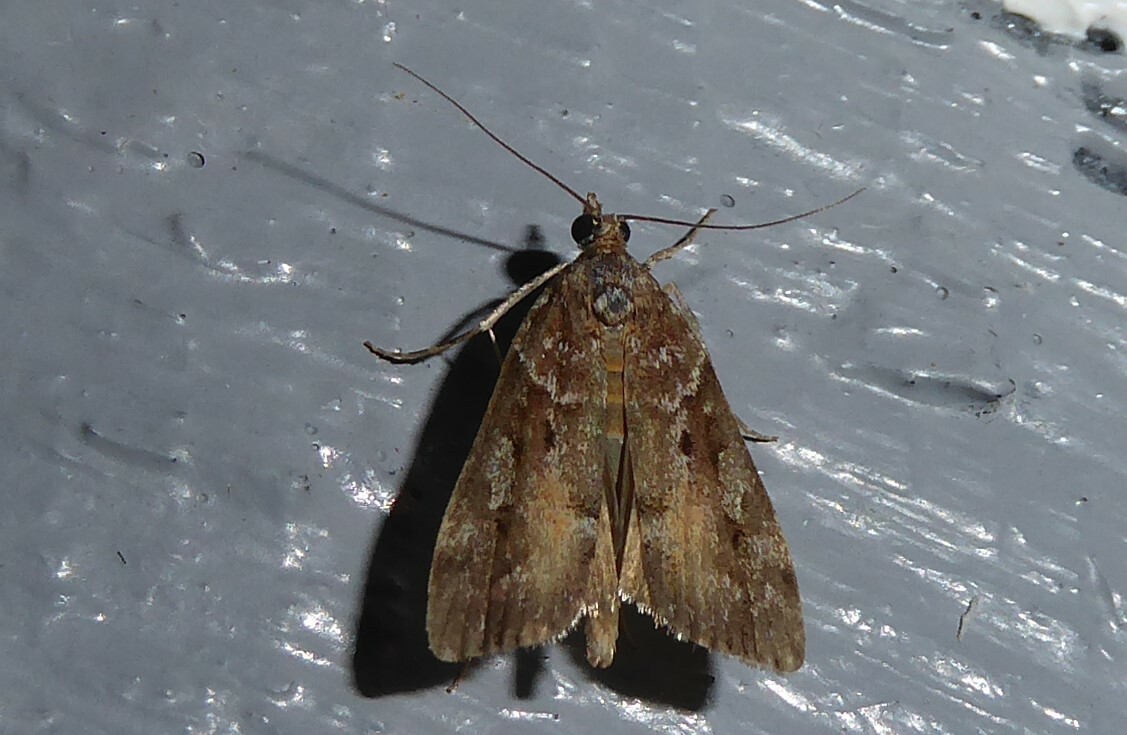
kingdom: Animalia
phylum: Arthropoda
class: Insecta
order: Lepidoptera
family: Crambidae
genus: Eudonia
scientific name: Eudonia submarginalis
